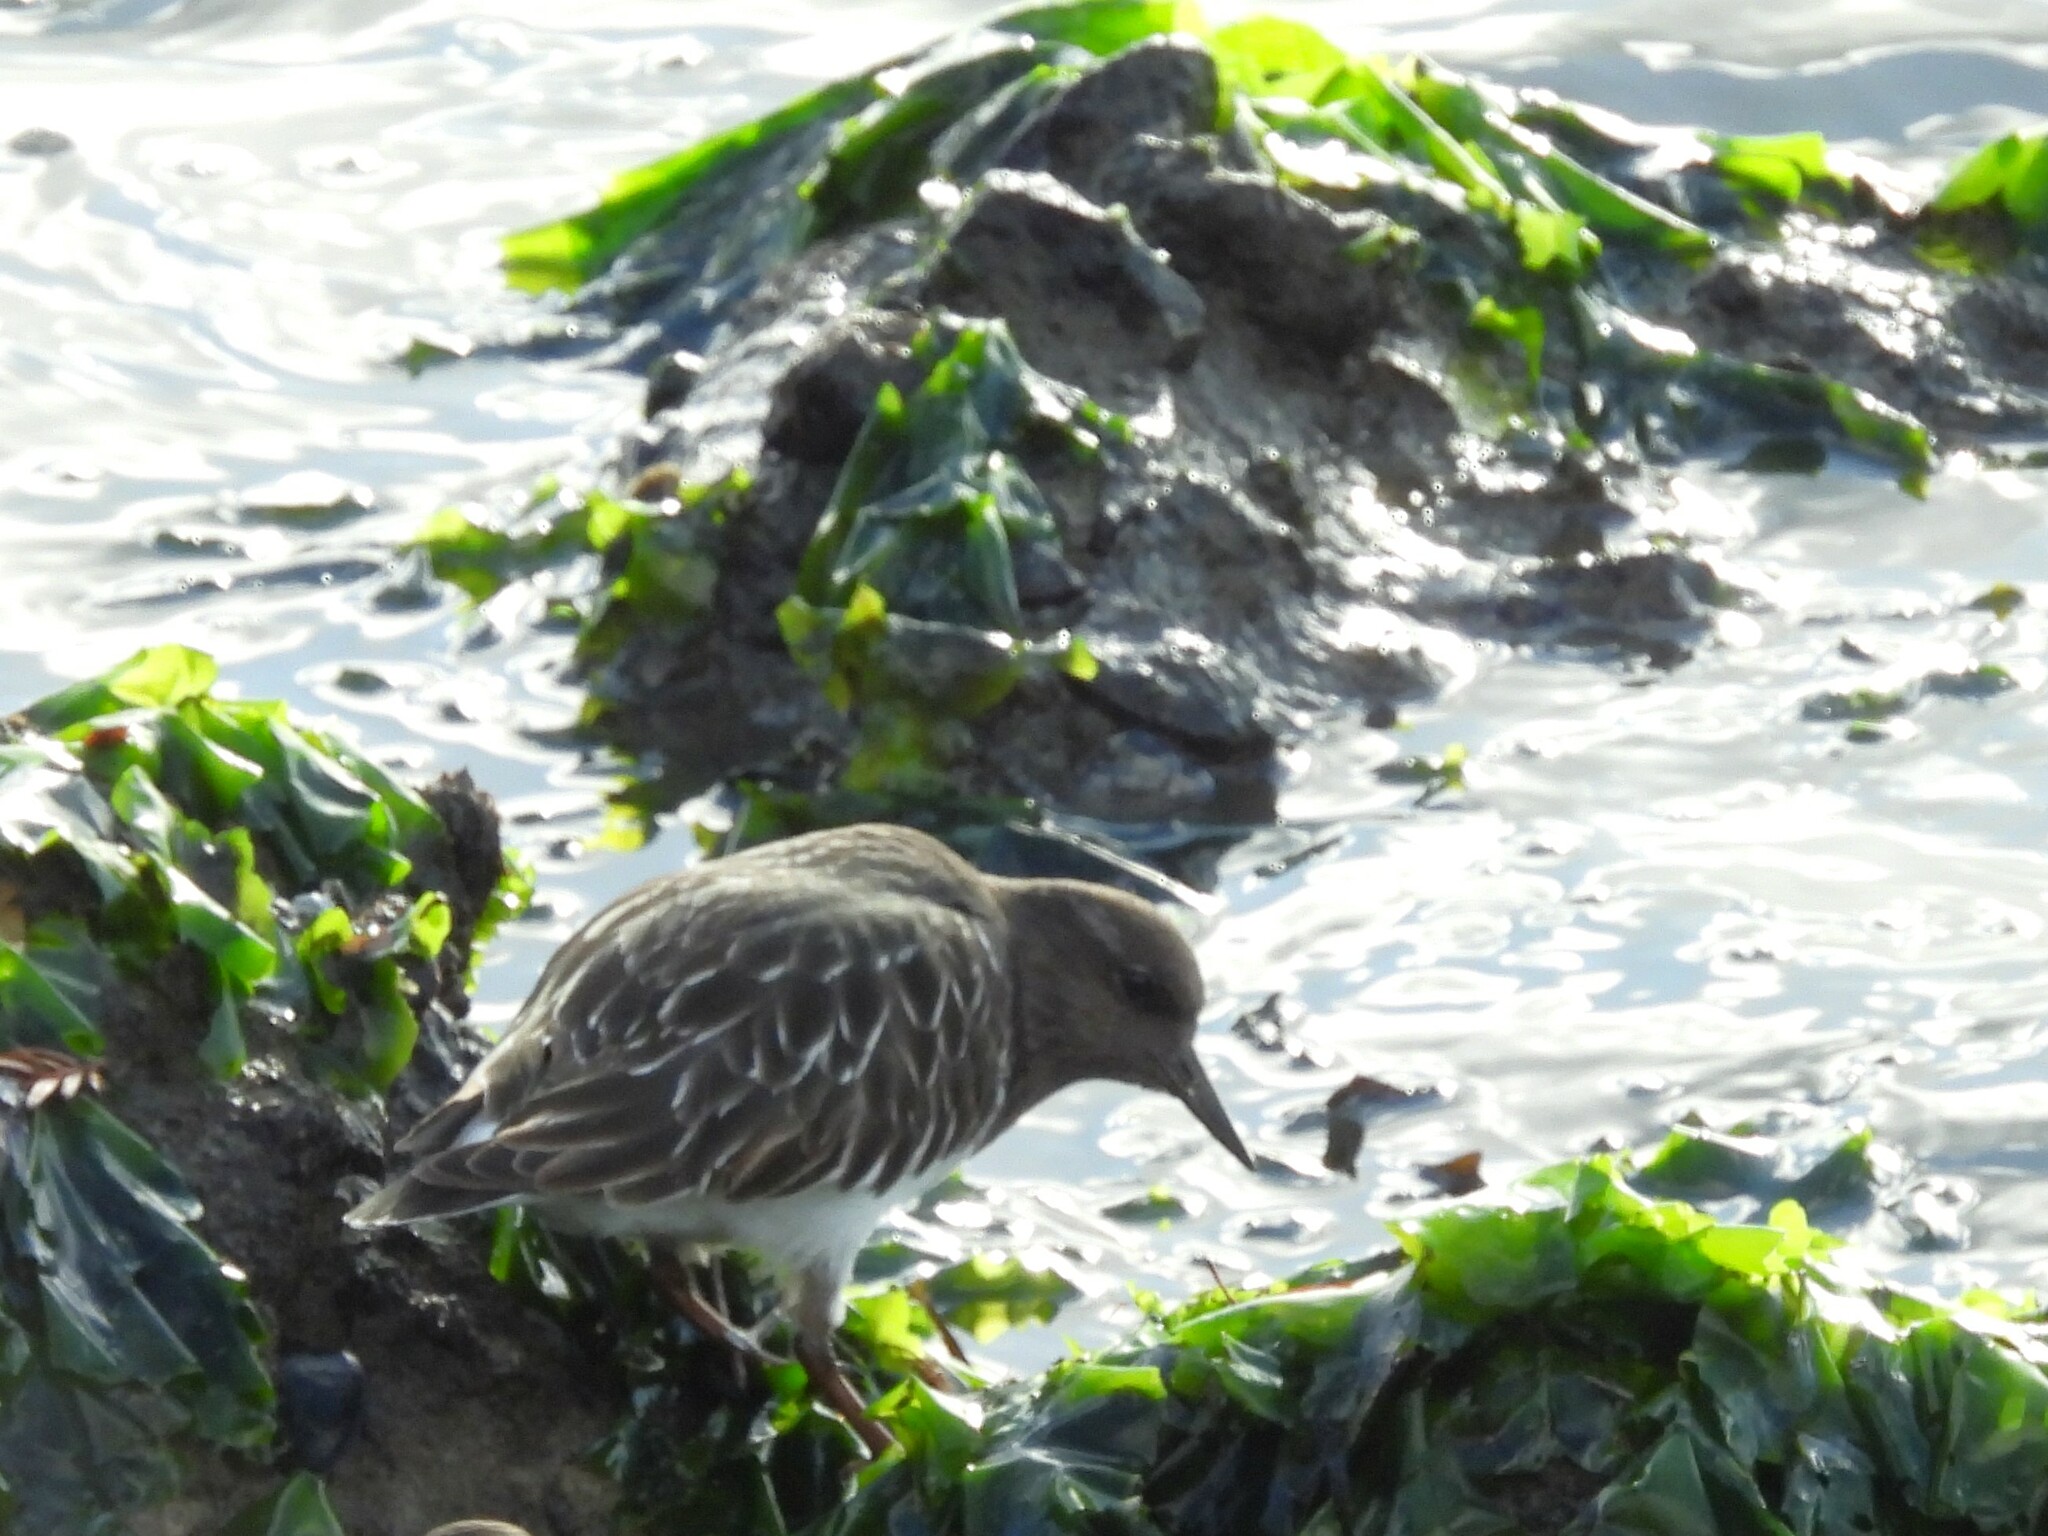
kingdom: Animalia
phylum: Chordata
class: Aves
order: Charadriiformes
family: Scolopacidae
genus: Arenaria
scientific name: Arenaria melanocephala
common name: Black turnstone
